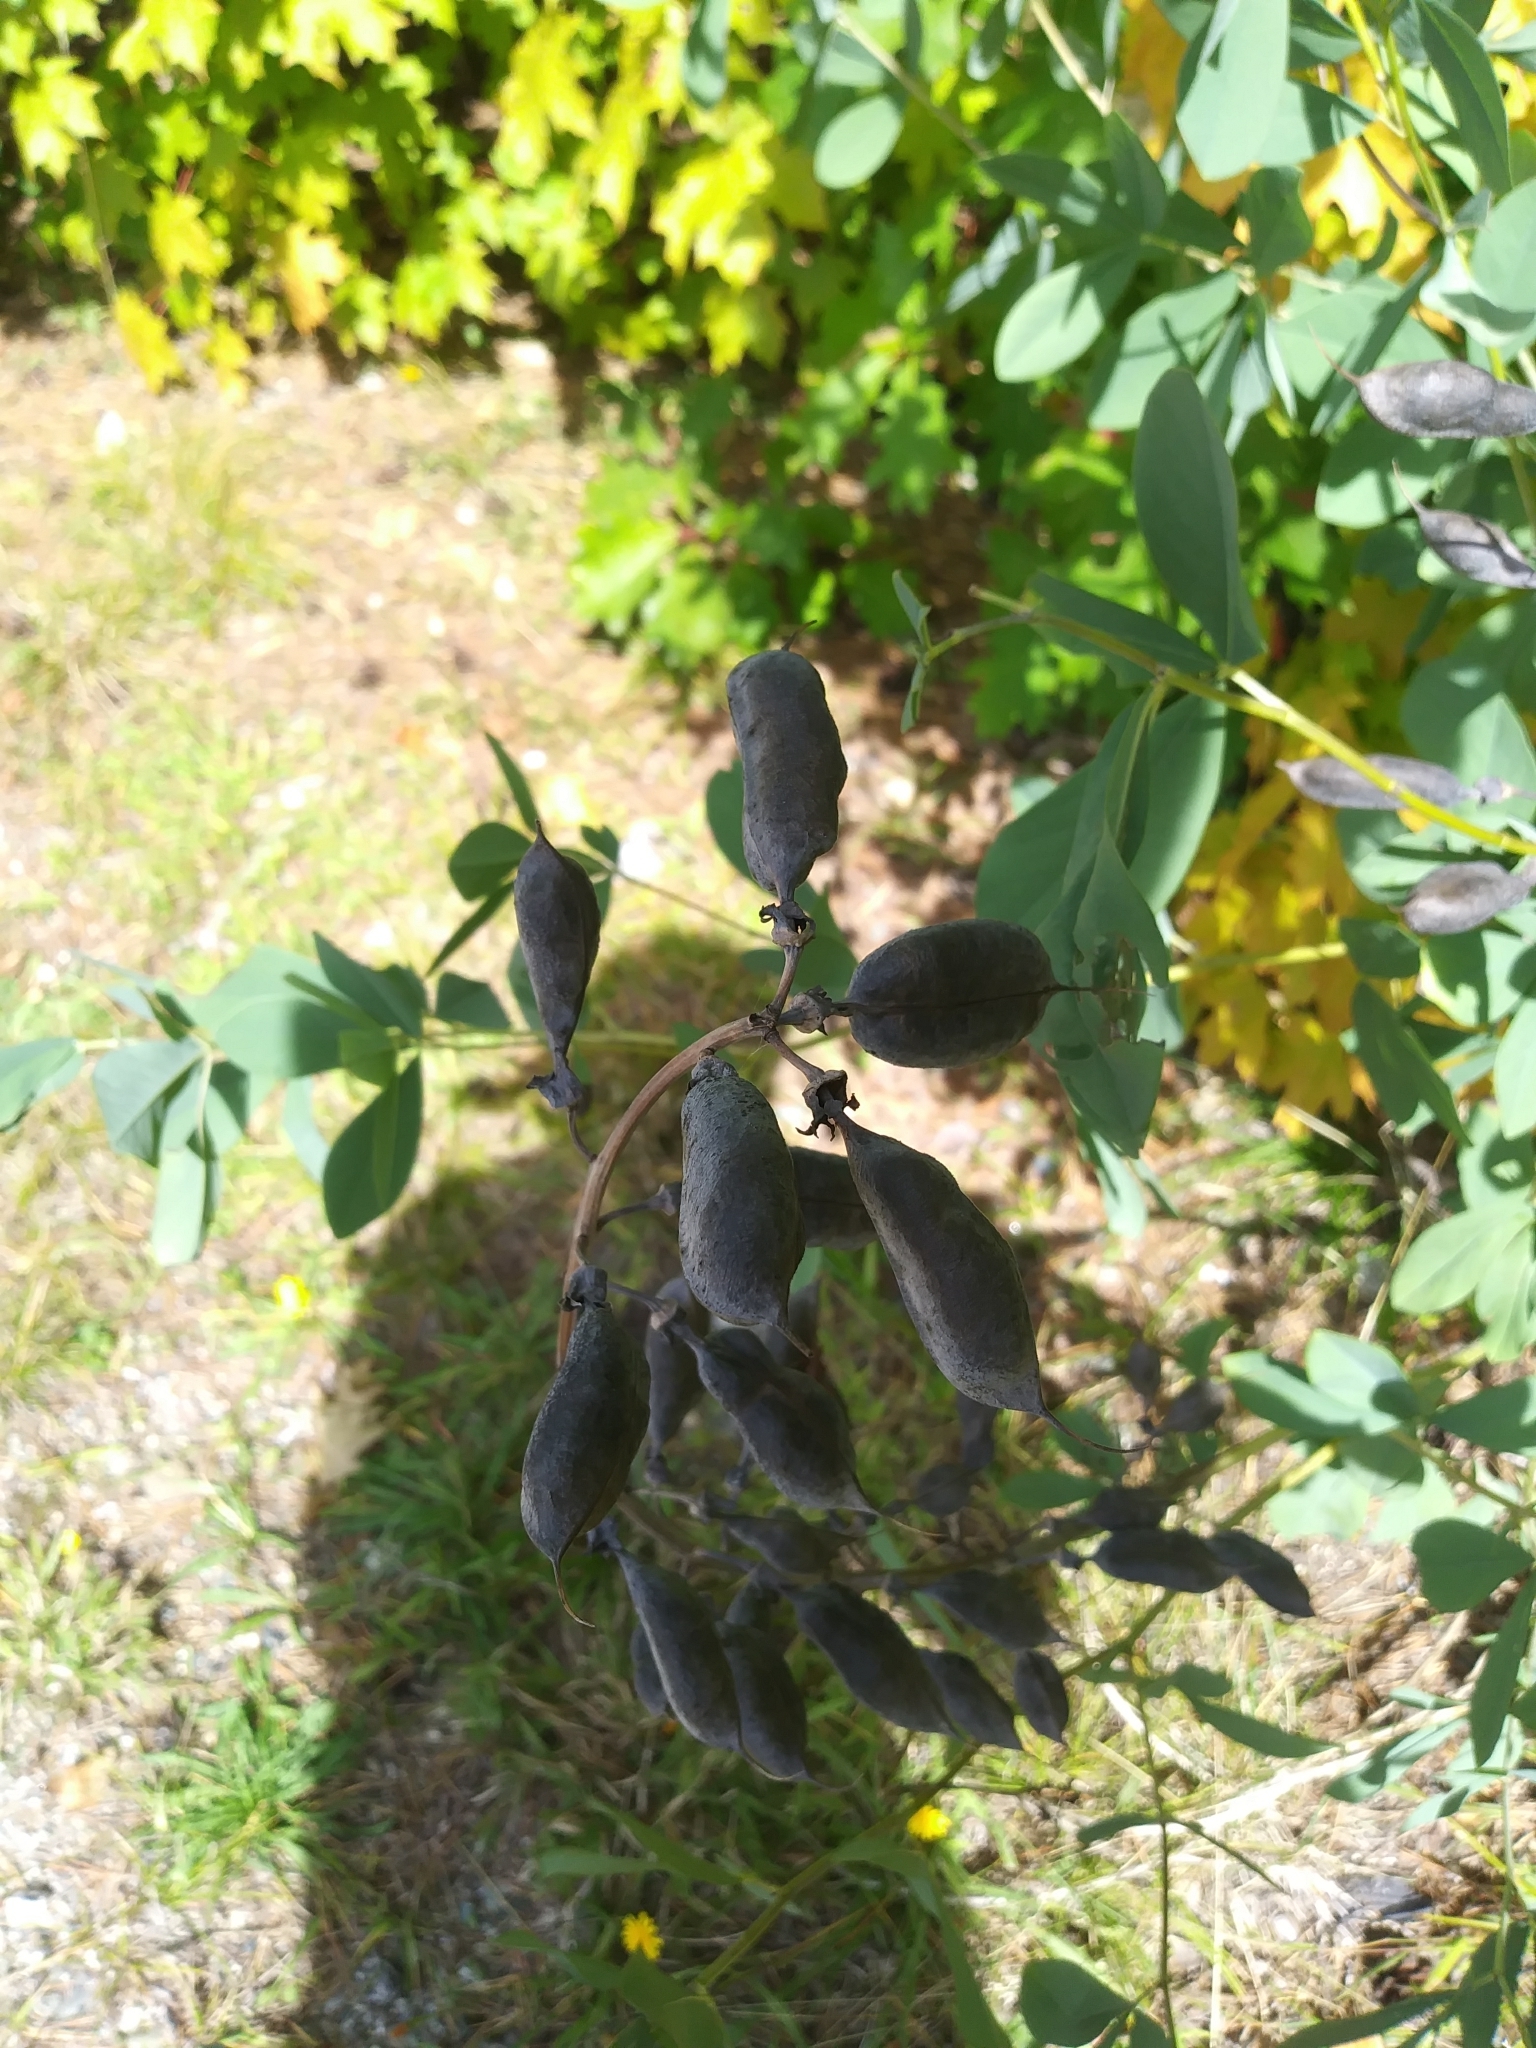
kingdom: Plantae
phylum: Tracheophyta
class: Magnoliopsida
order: Fabales
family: Fabaceae
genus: Baptisia
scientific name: Baptisia australis
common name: Blue false indigo
